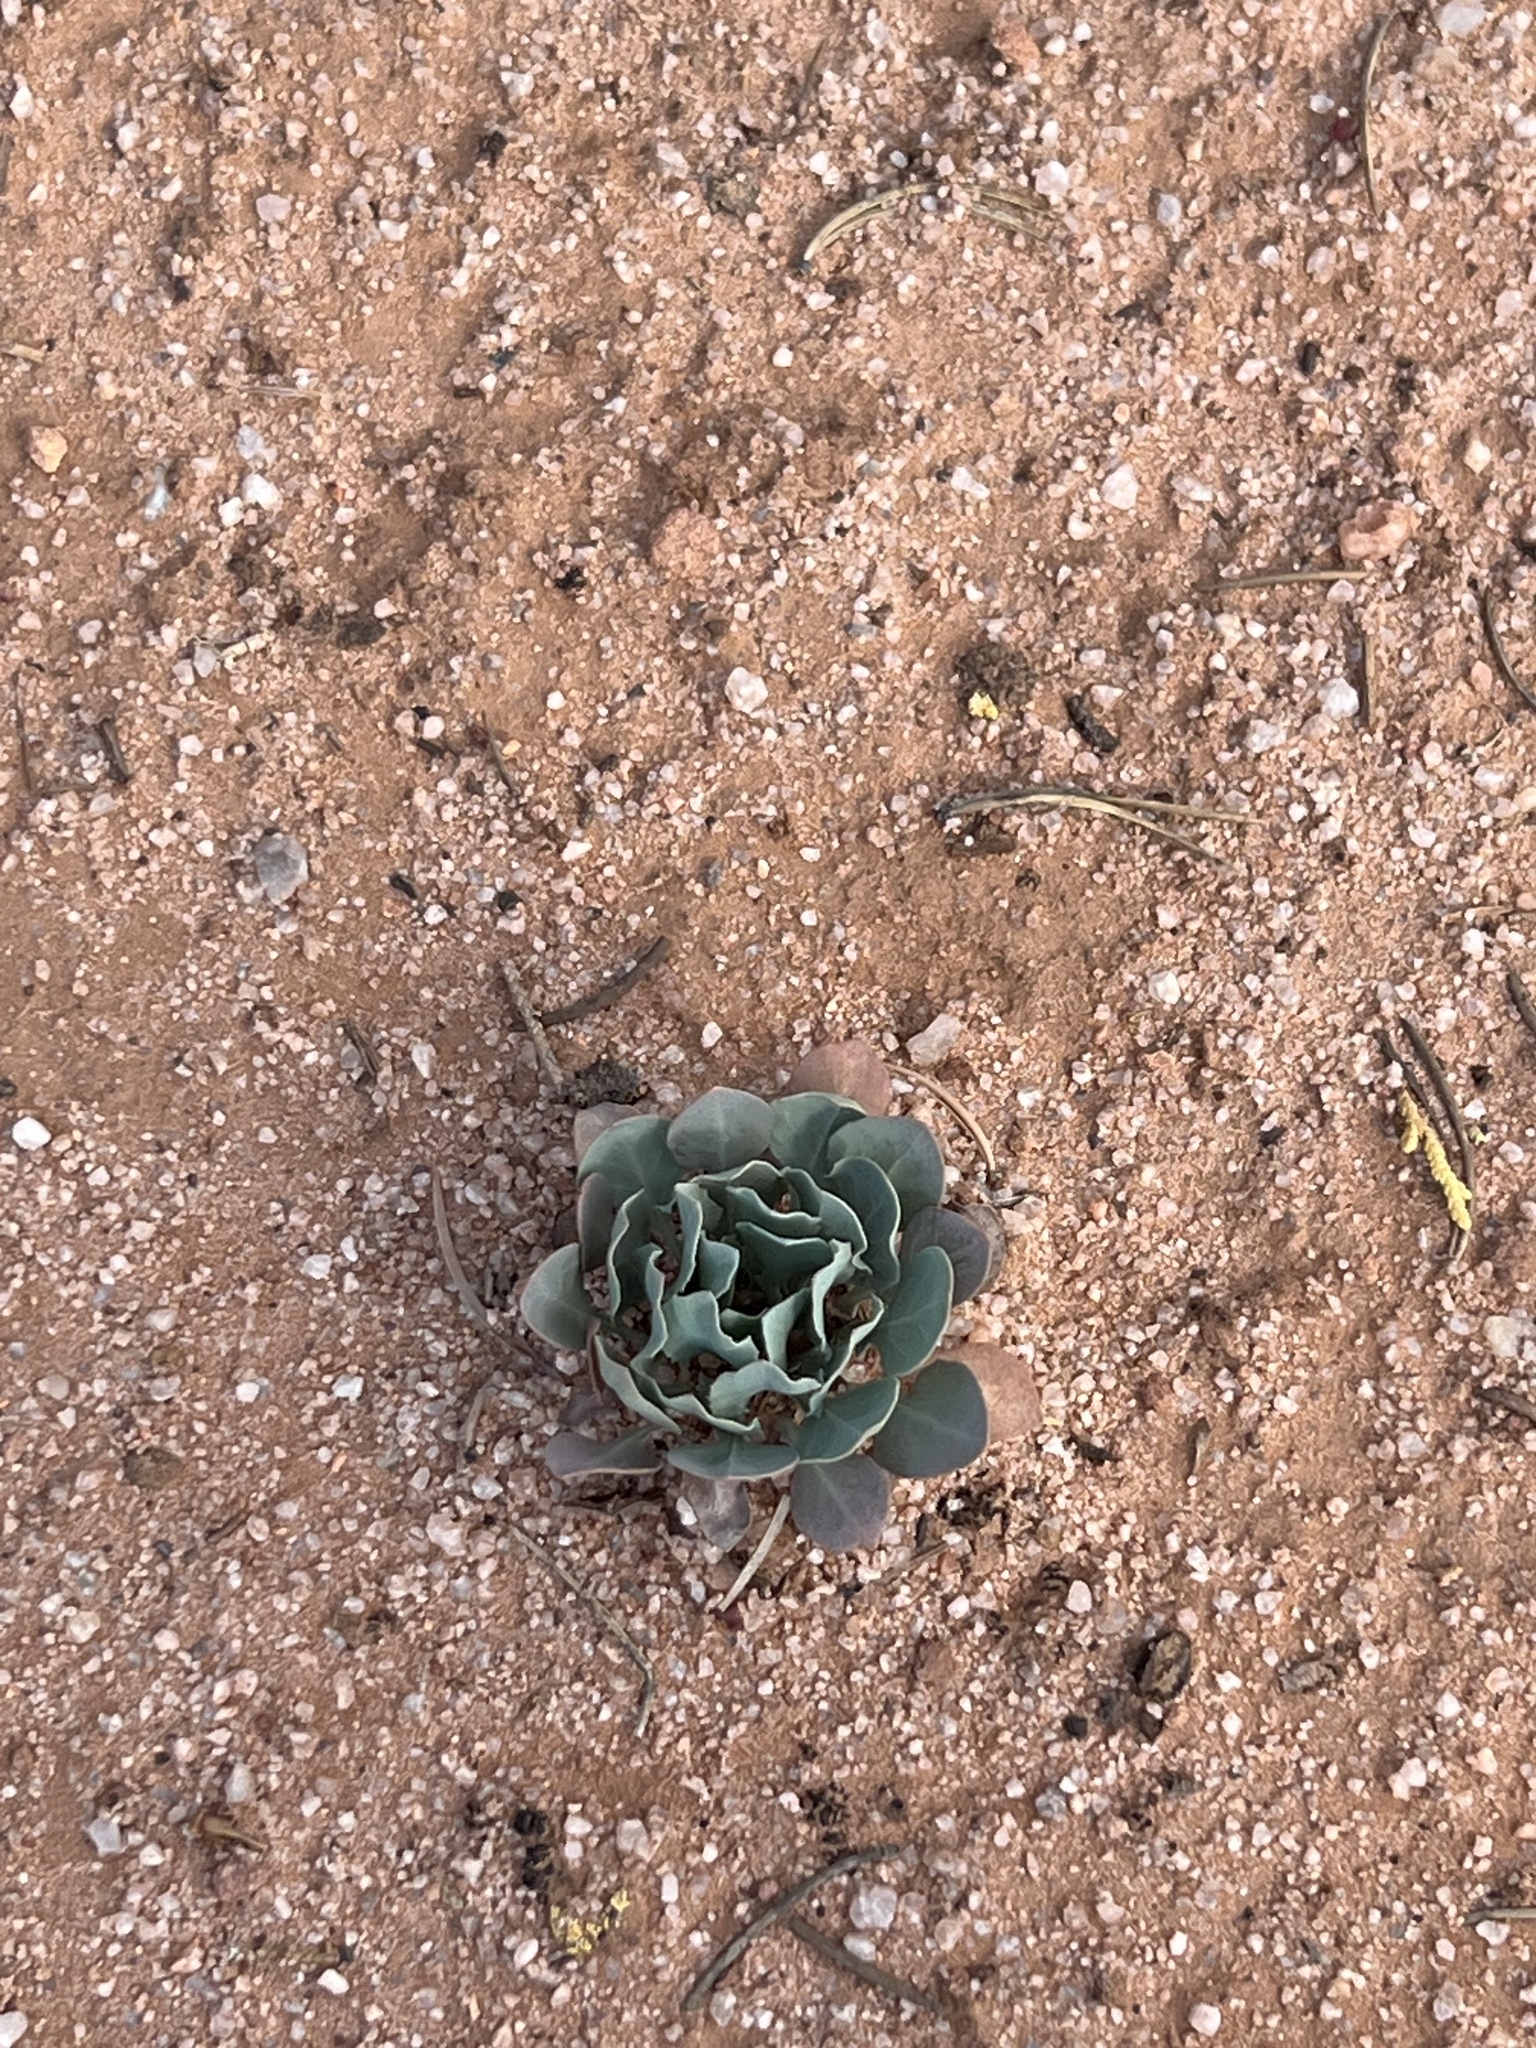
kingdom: Plantae
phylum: Tracheophyta
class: Magnoliopsida
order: Brassicales
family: Brassicaceae
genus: Streptanthus
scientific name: Streptanthus crassicaulis
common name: Thick-stem wild cabbage
